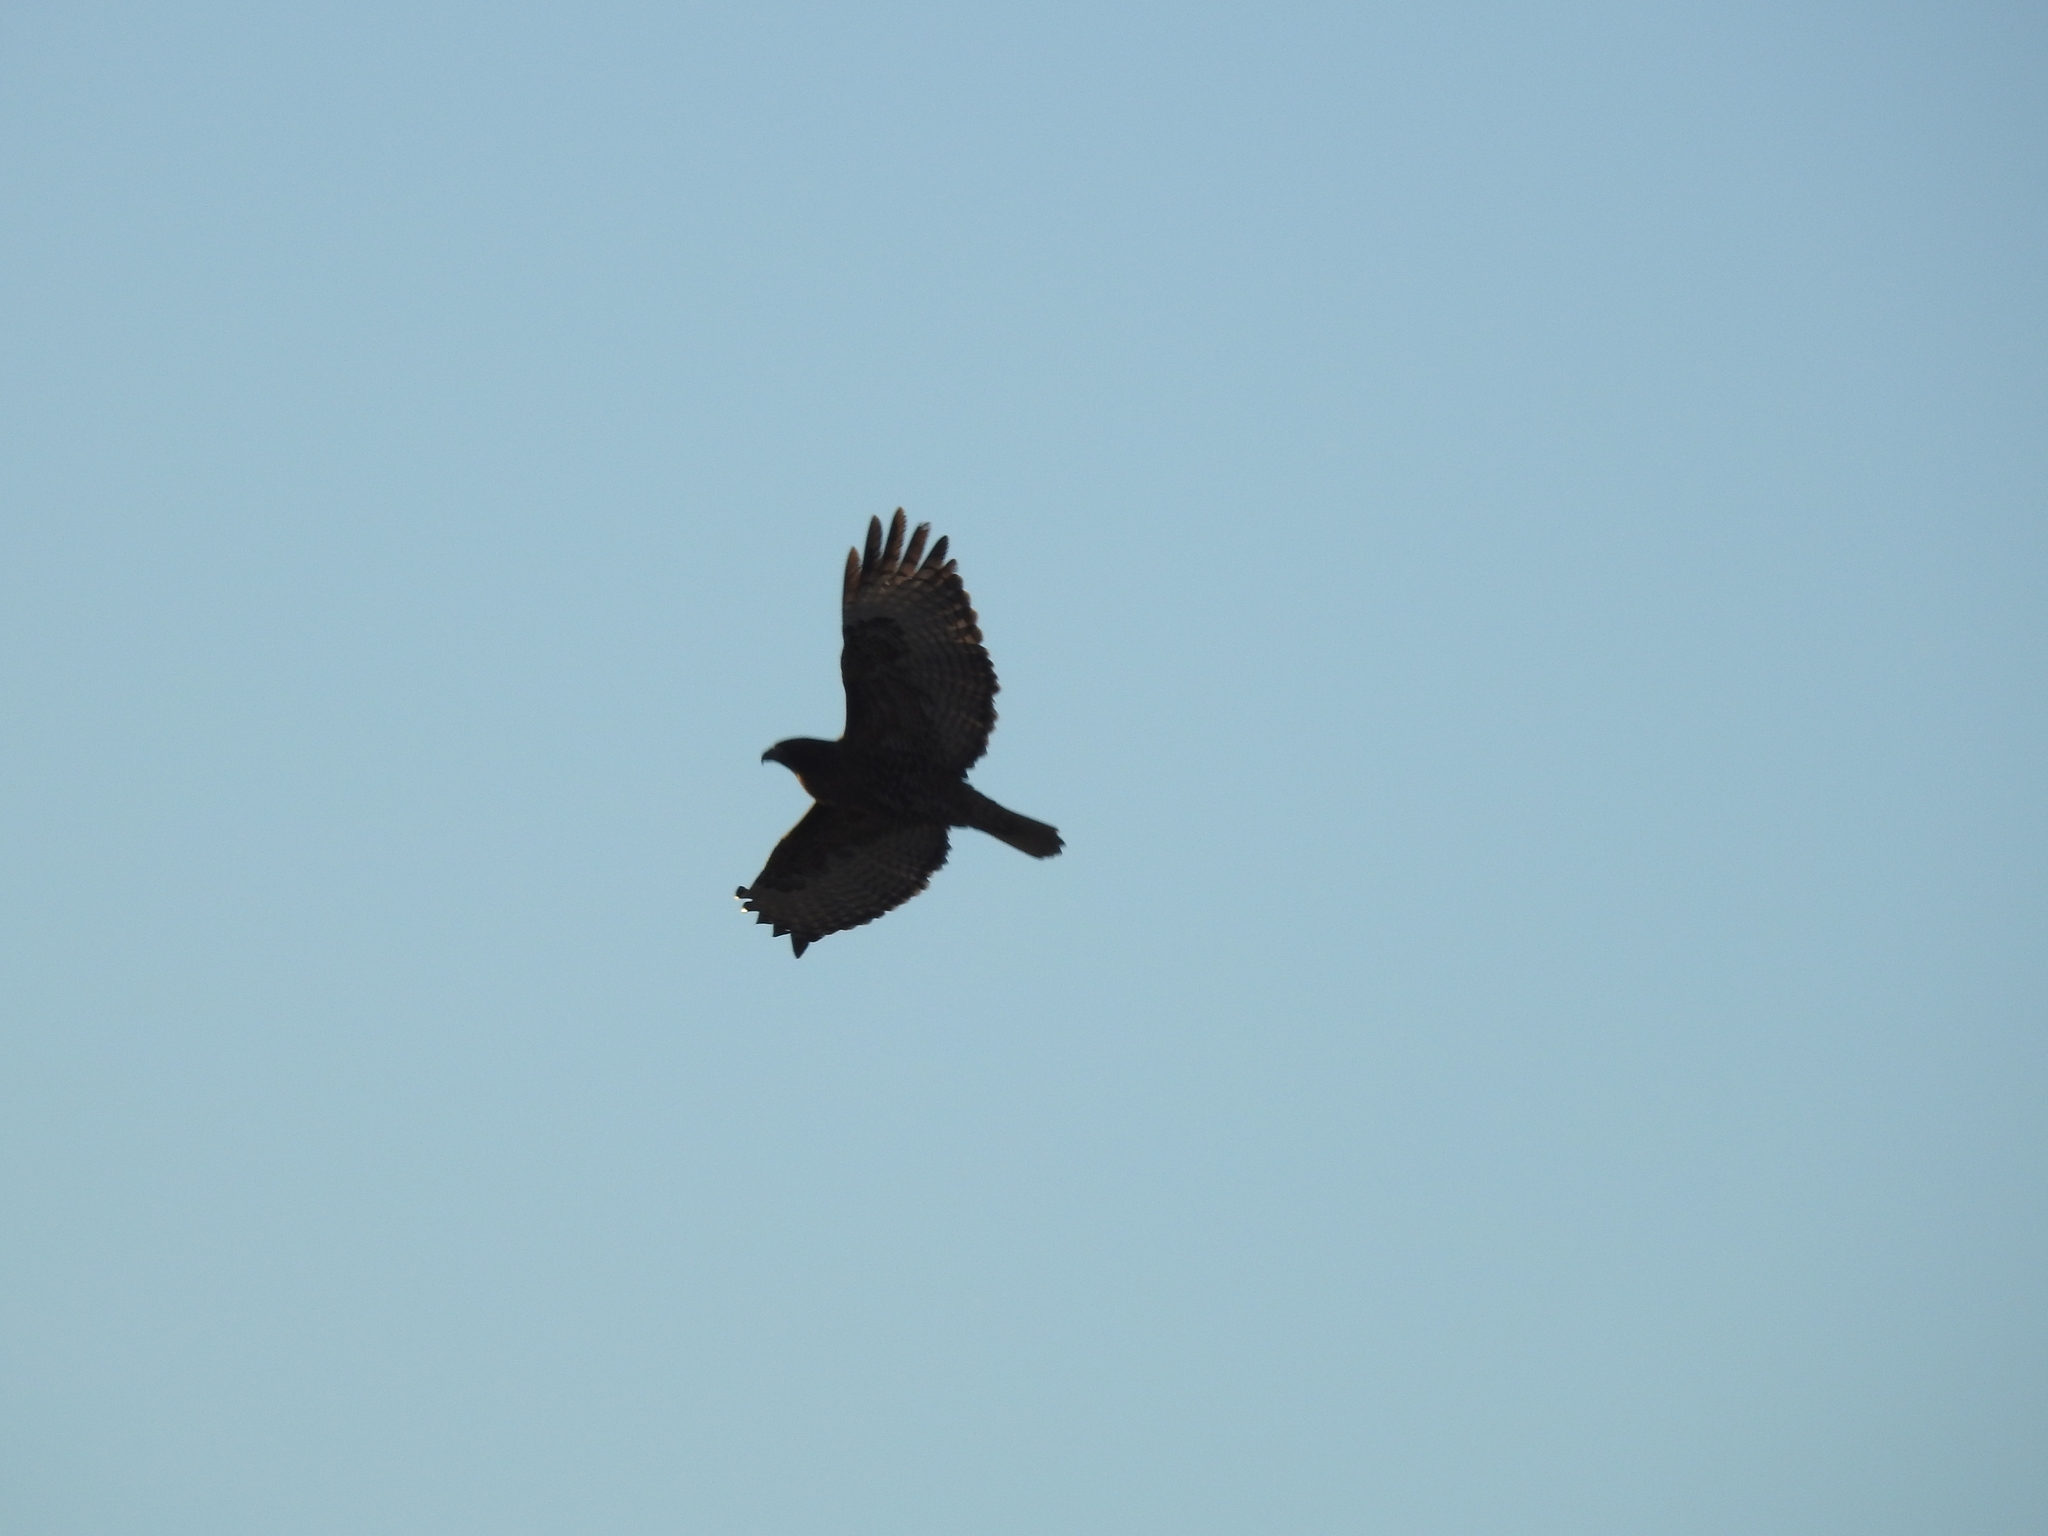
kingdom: Animalia
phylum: Chordata
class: Aves
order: Accipitriformes
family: Accipitridae
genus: Buteo
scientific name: Buteo jamaicensis
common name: Red-tailed hawk
